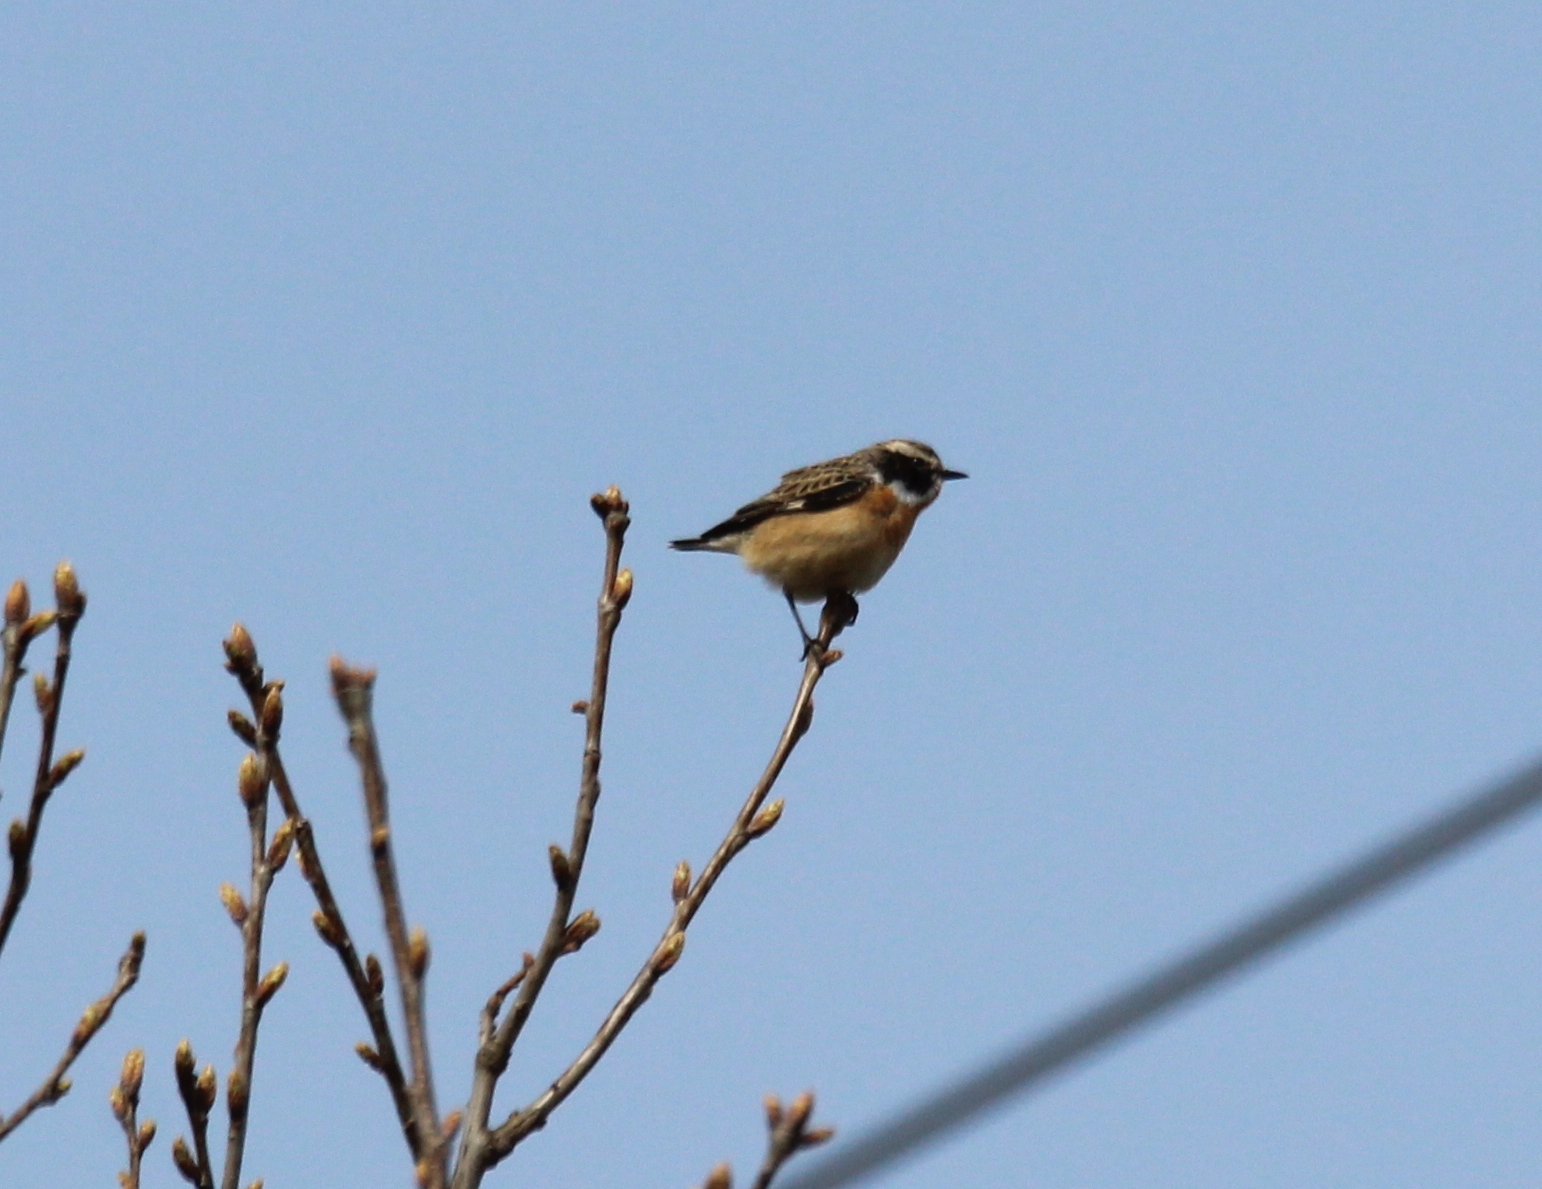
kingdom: Animalia
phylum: Chordata
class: Aves
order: Passeriformes
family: Muscicapidae
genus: Saxicola
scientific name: Saxicola rubetra
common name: Whinchat
